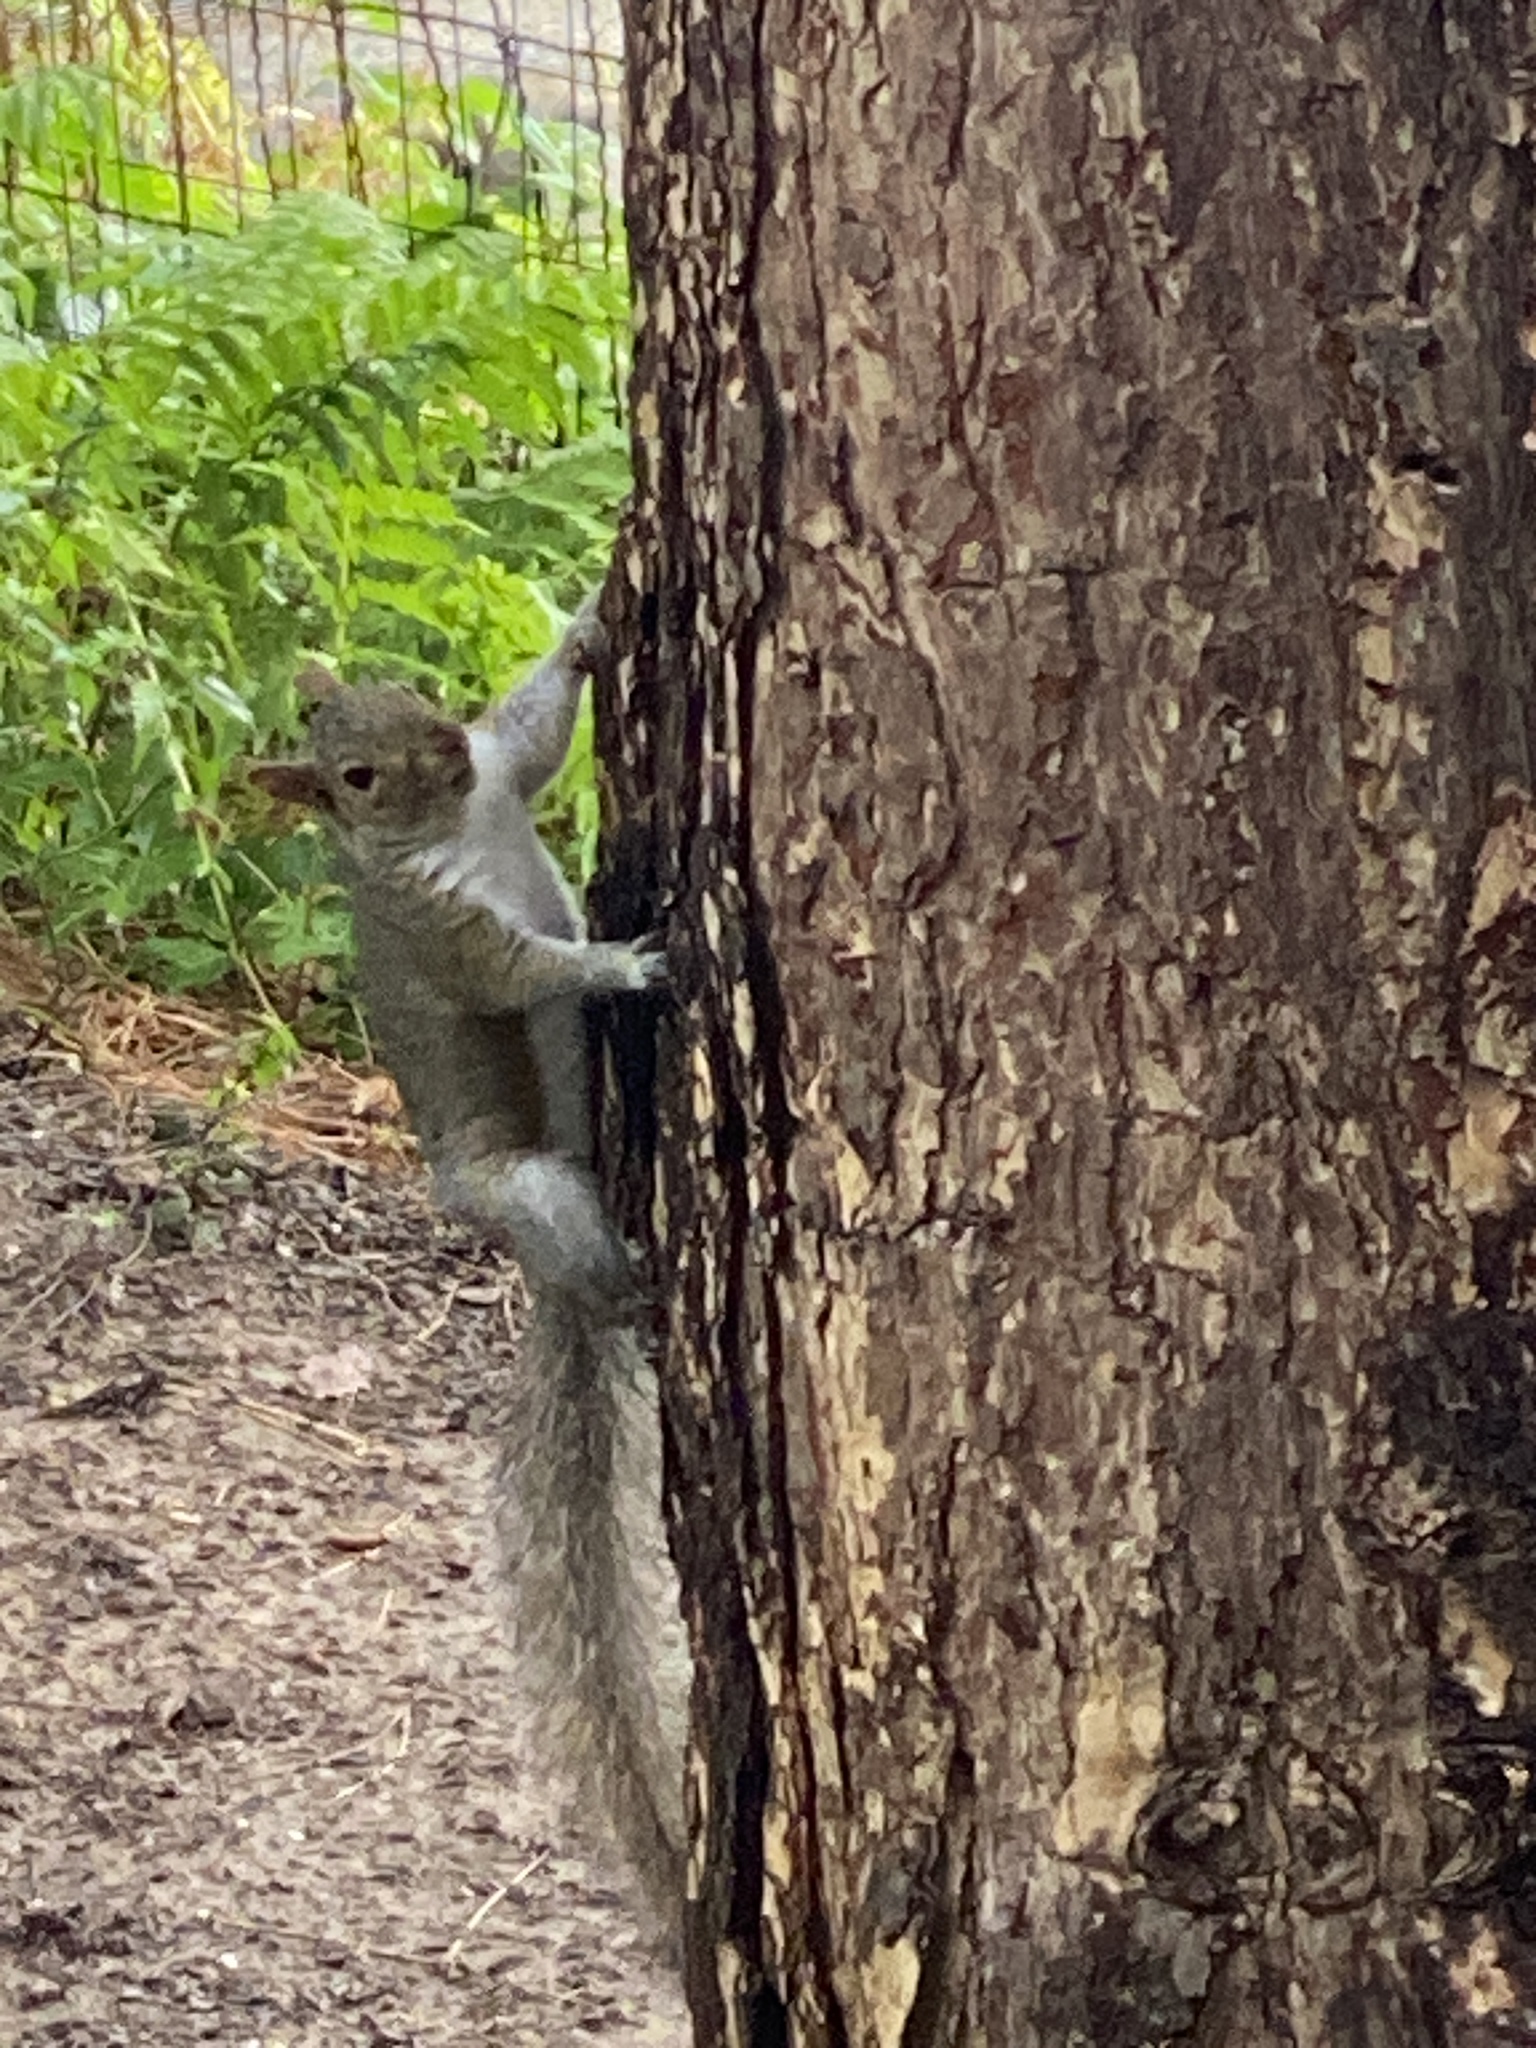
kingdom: Animalia
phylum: Chordata
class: Mammalia
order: Rodentia
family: Sciuridae
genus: Sciurus
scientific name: Sciurus carolinensis
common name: Eastern gray squirrel
